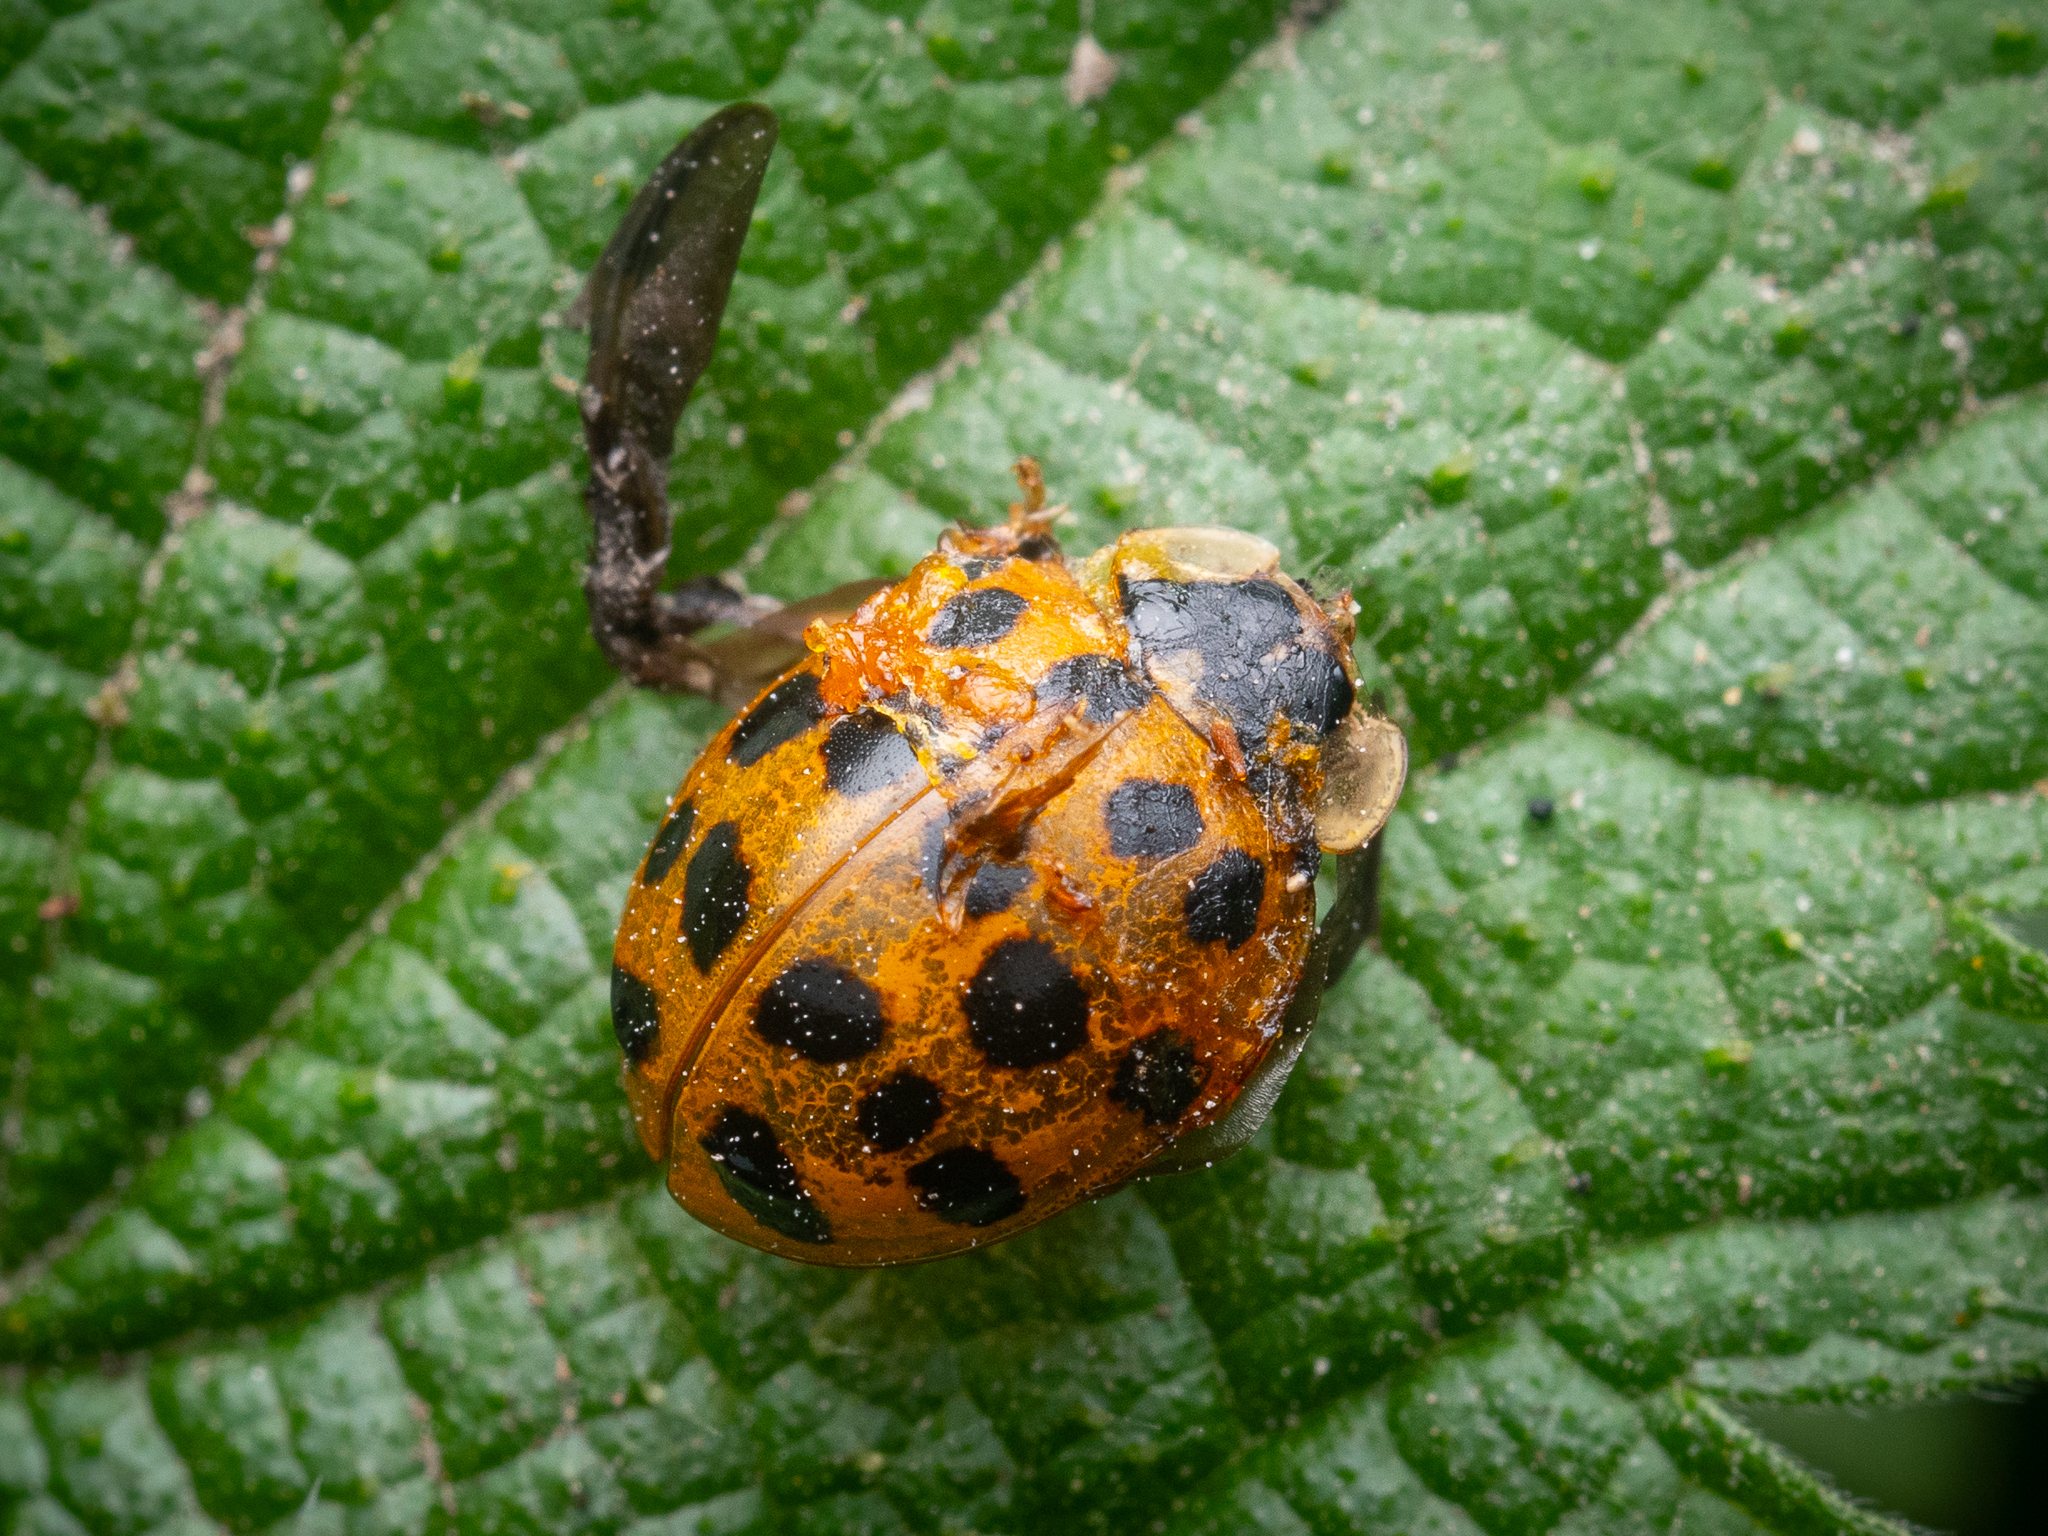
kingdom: Animalia
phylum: Arthropoda
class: Insecta
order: Coleoptera
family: Coccinellidae
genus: Harmonia
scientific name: Harmonia axyridis
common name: Harlequin ladybird
